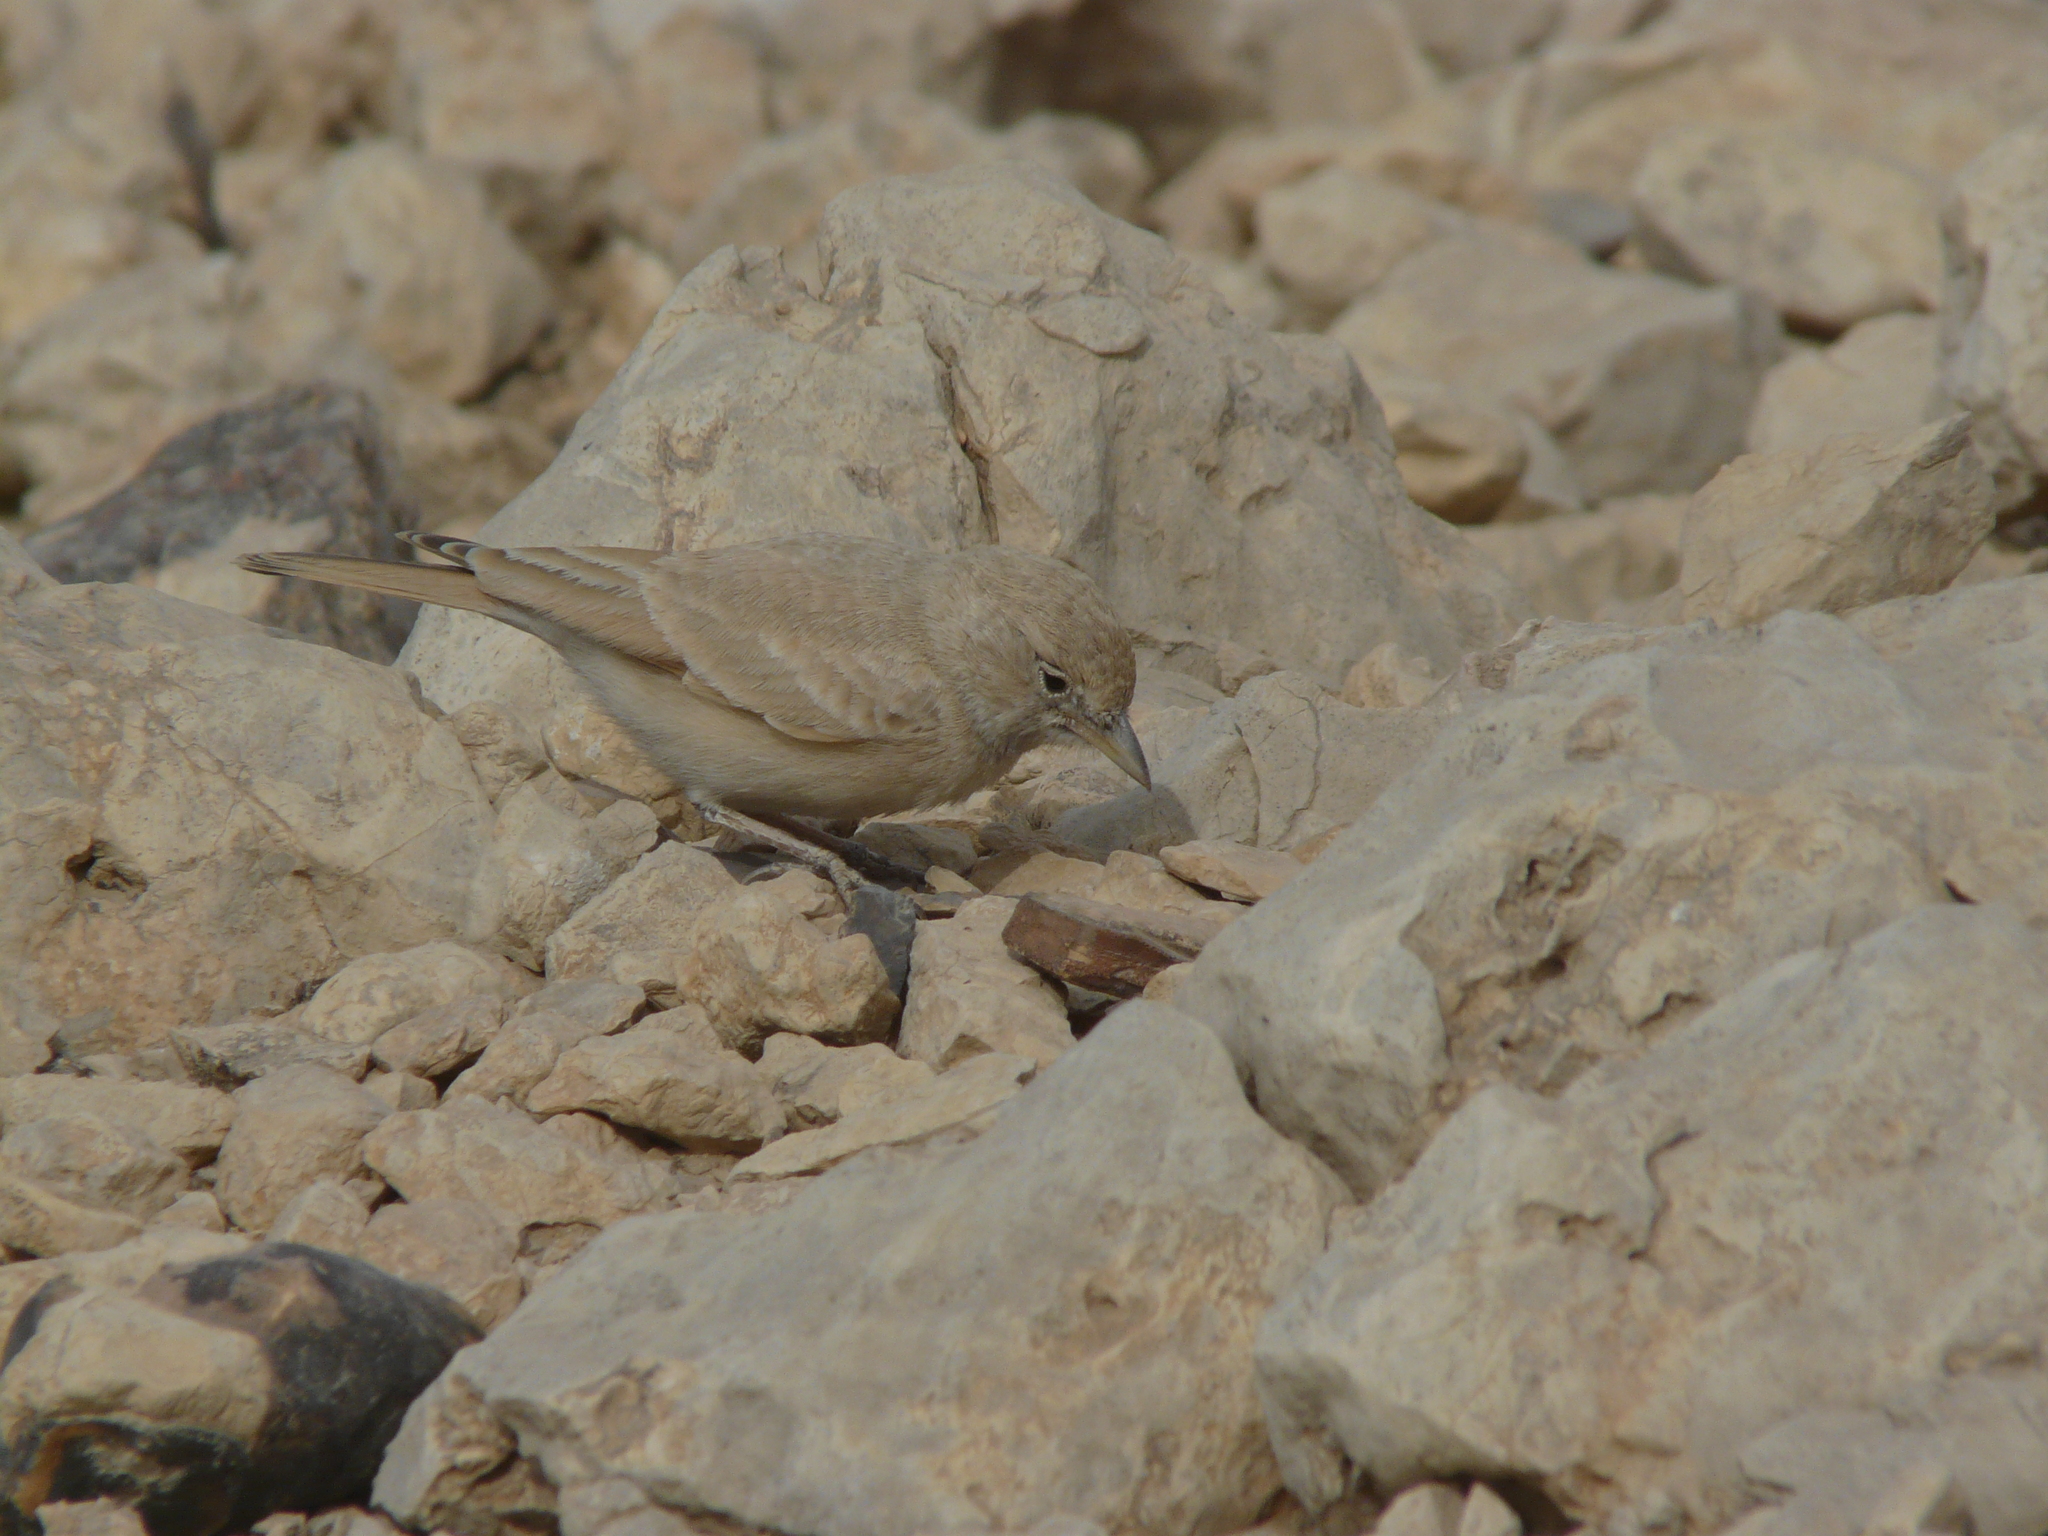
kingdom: Animalia
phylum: Chordata
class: Aves
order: Passeriformes
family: Alaudidae
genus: Ammomanes
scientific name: Ammomanes deserti
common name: Desert lark
